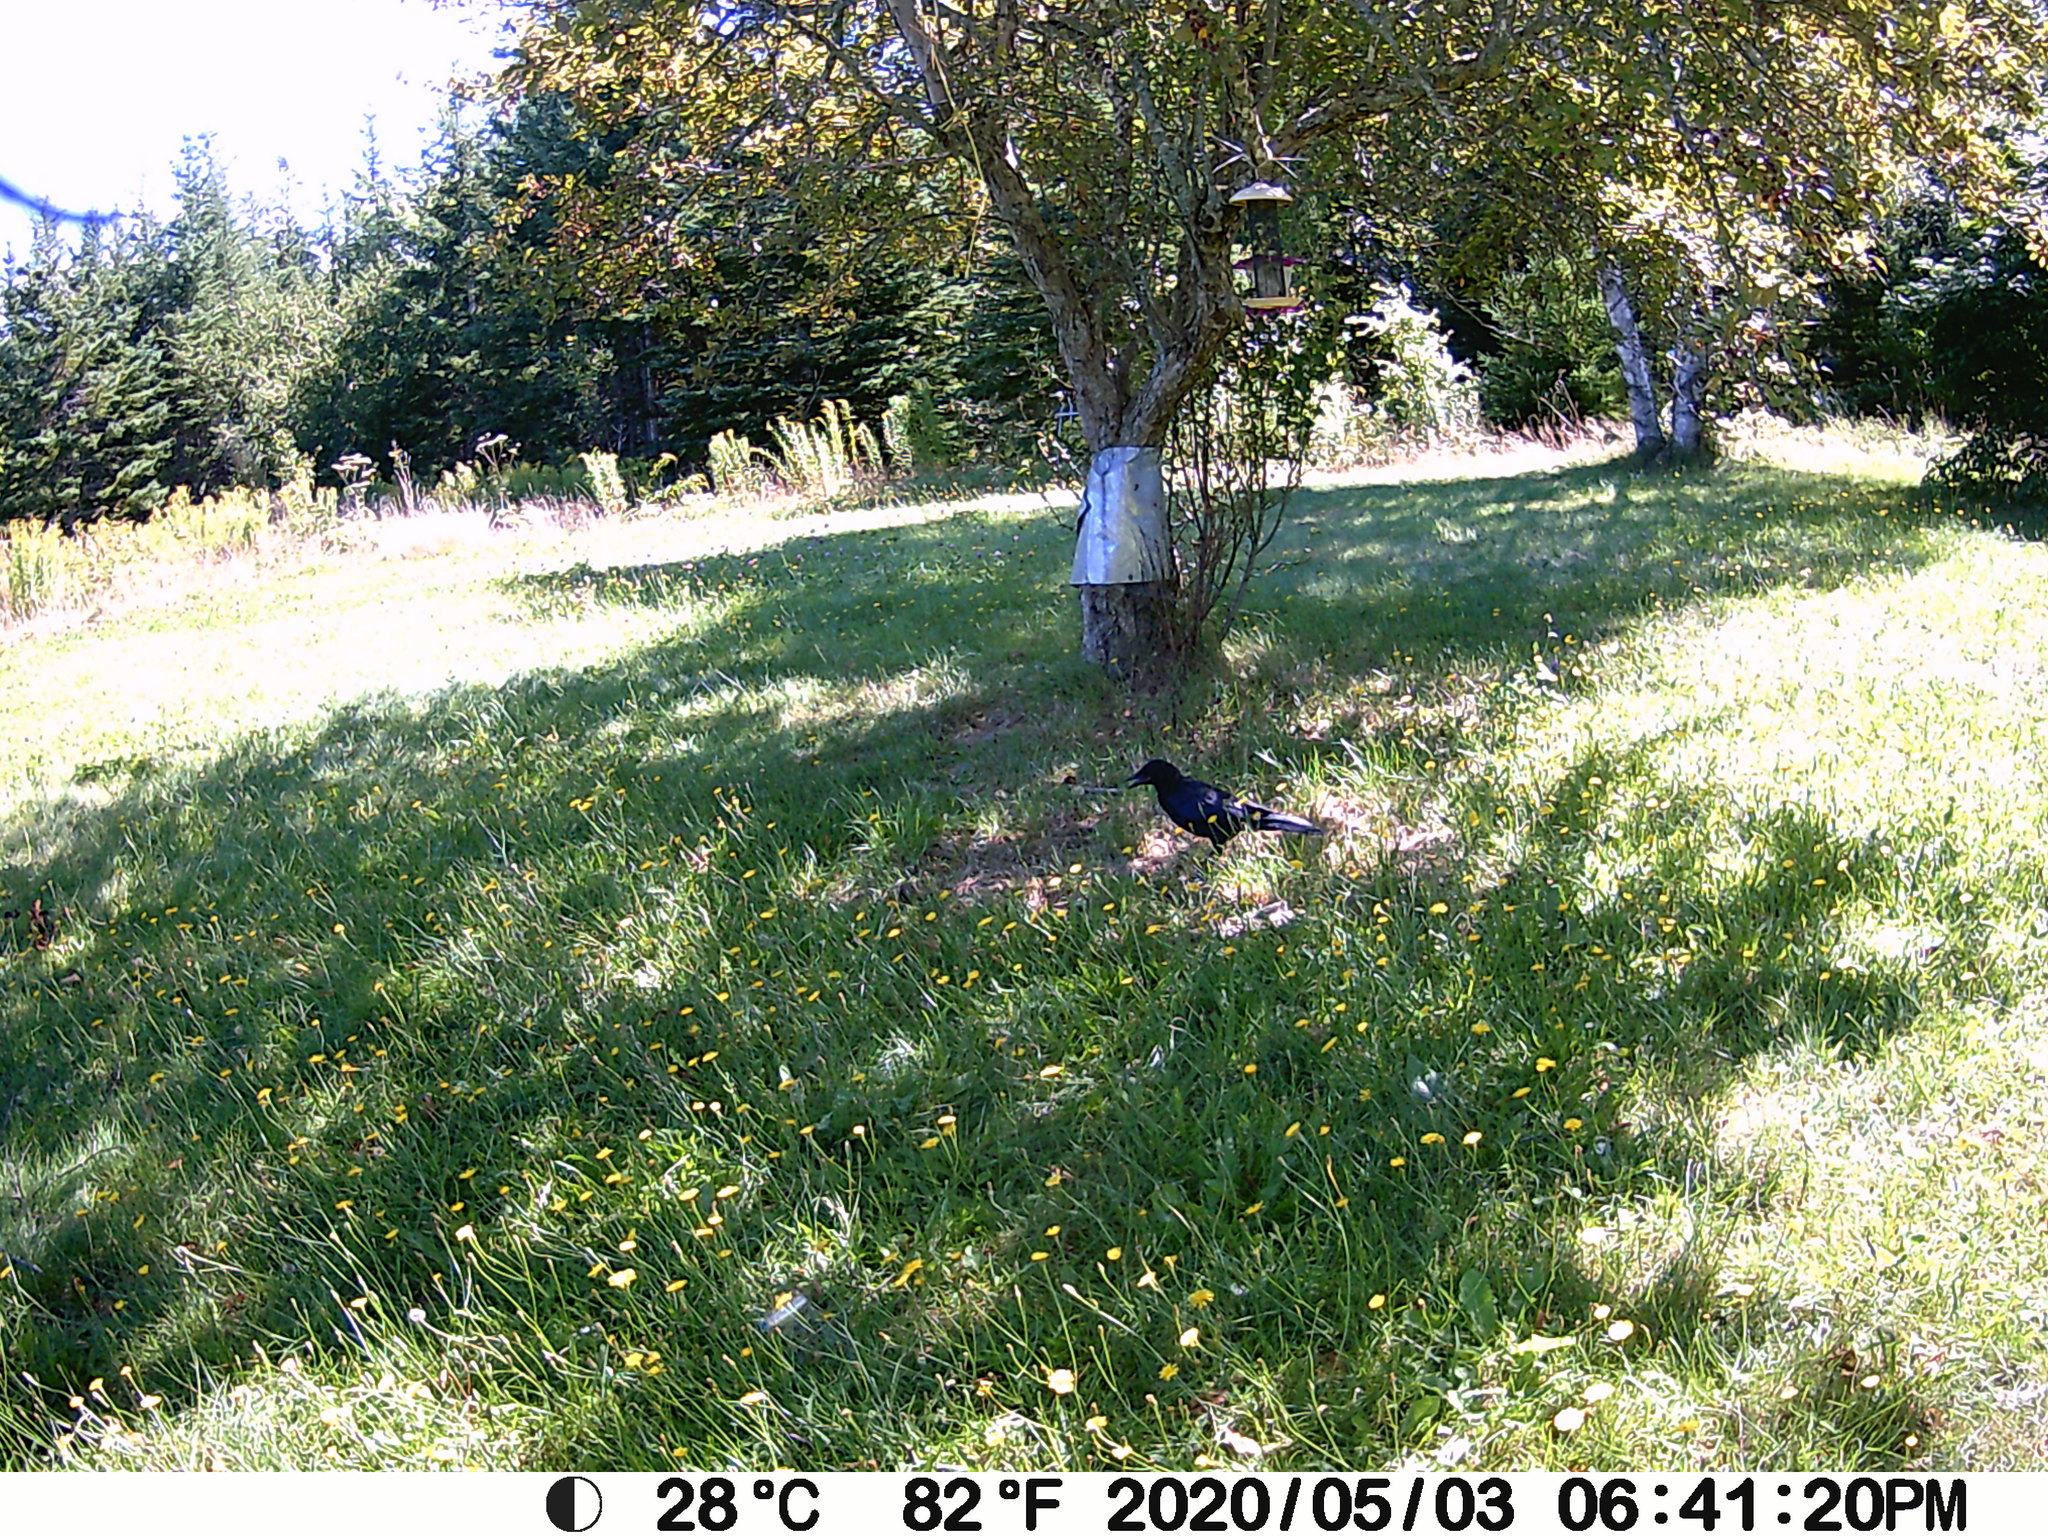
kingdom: Animalia
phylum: Chordata
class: Aves
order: Passeriformes
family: Corvidae
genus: Corvus
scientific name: Corvus brachyrhynchos
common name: American crow
